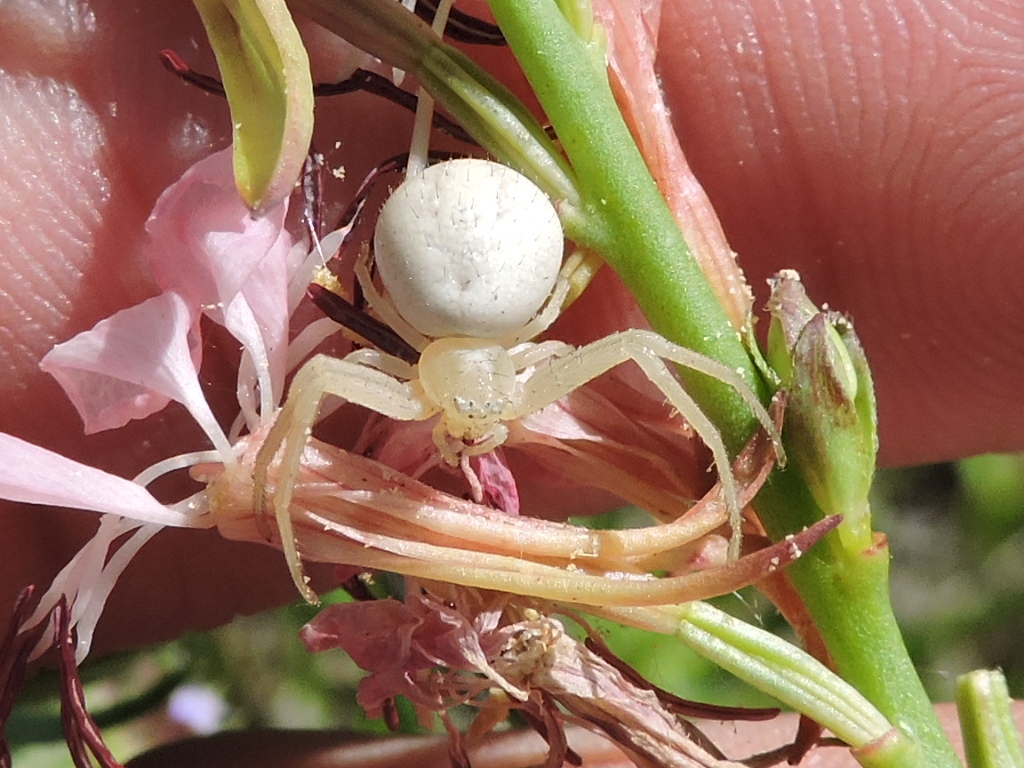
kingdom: Animalia
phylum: Arthropoda
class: Arachnida
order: Araneae
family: Thomisidae
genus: Mecaphesa
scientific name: Mecaphesa celer
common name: Crab spiders
